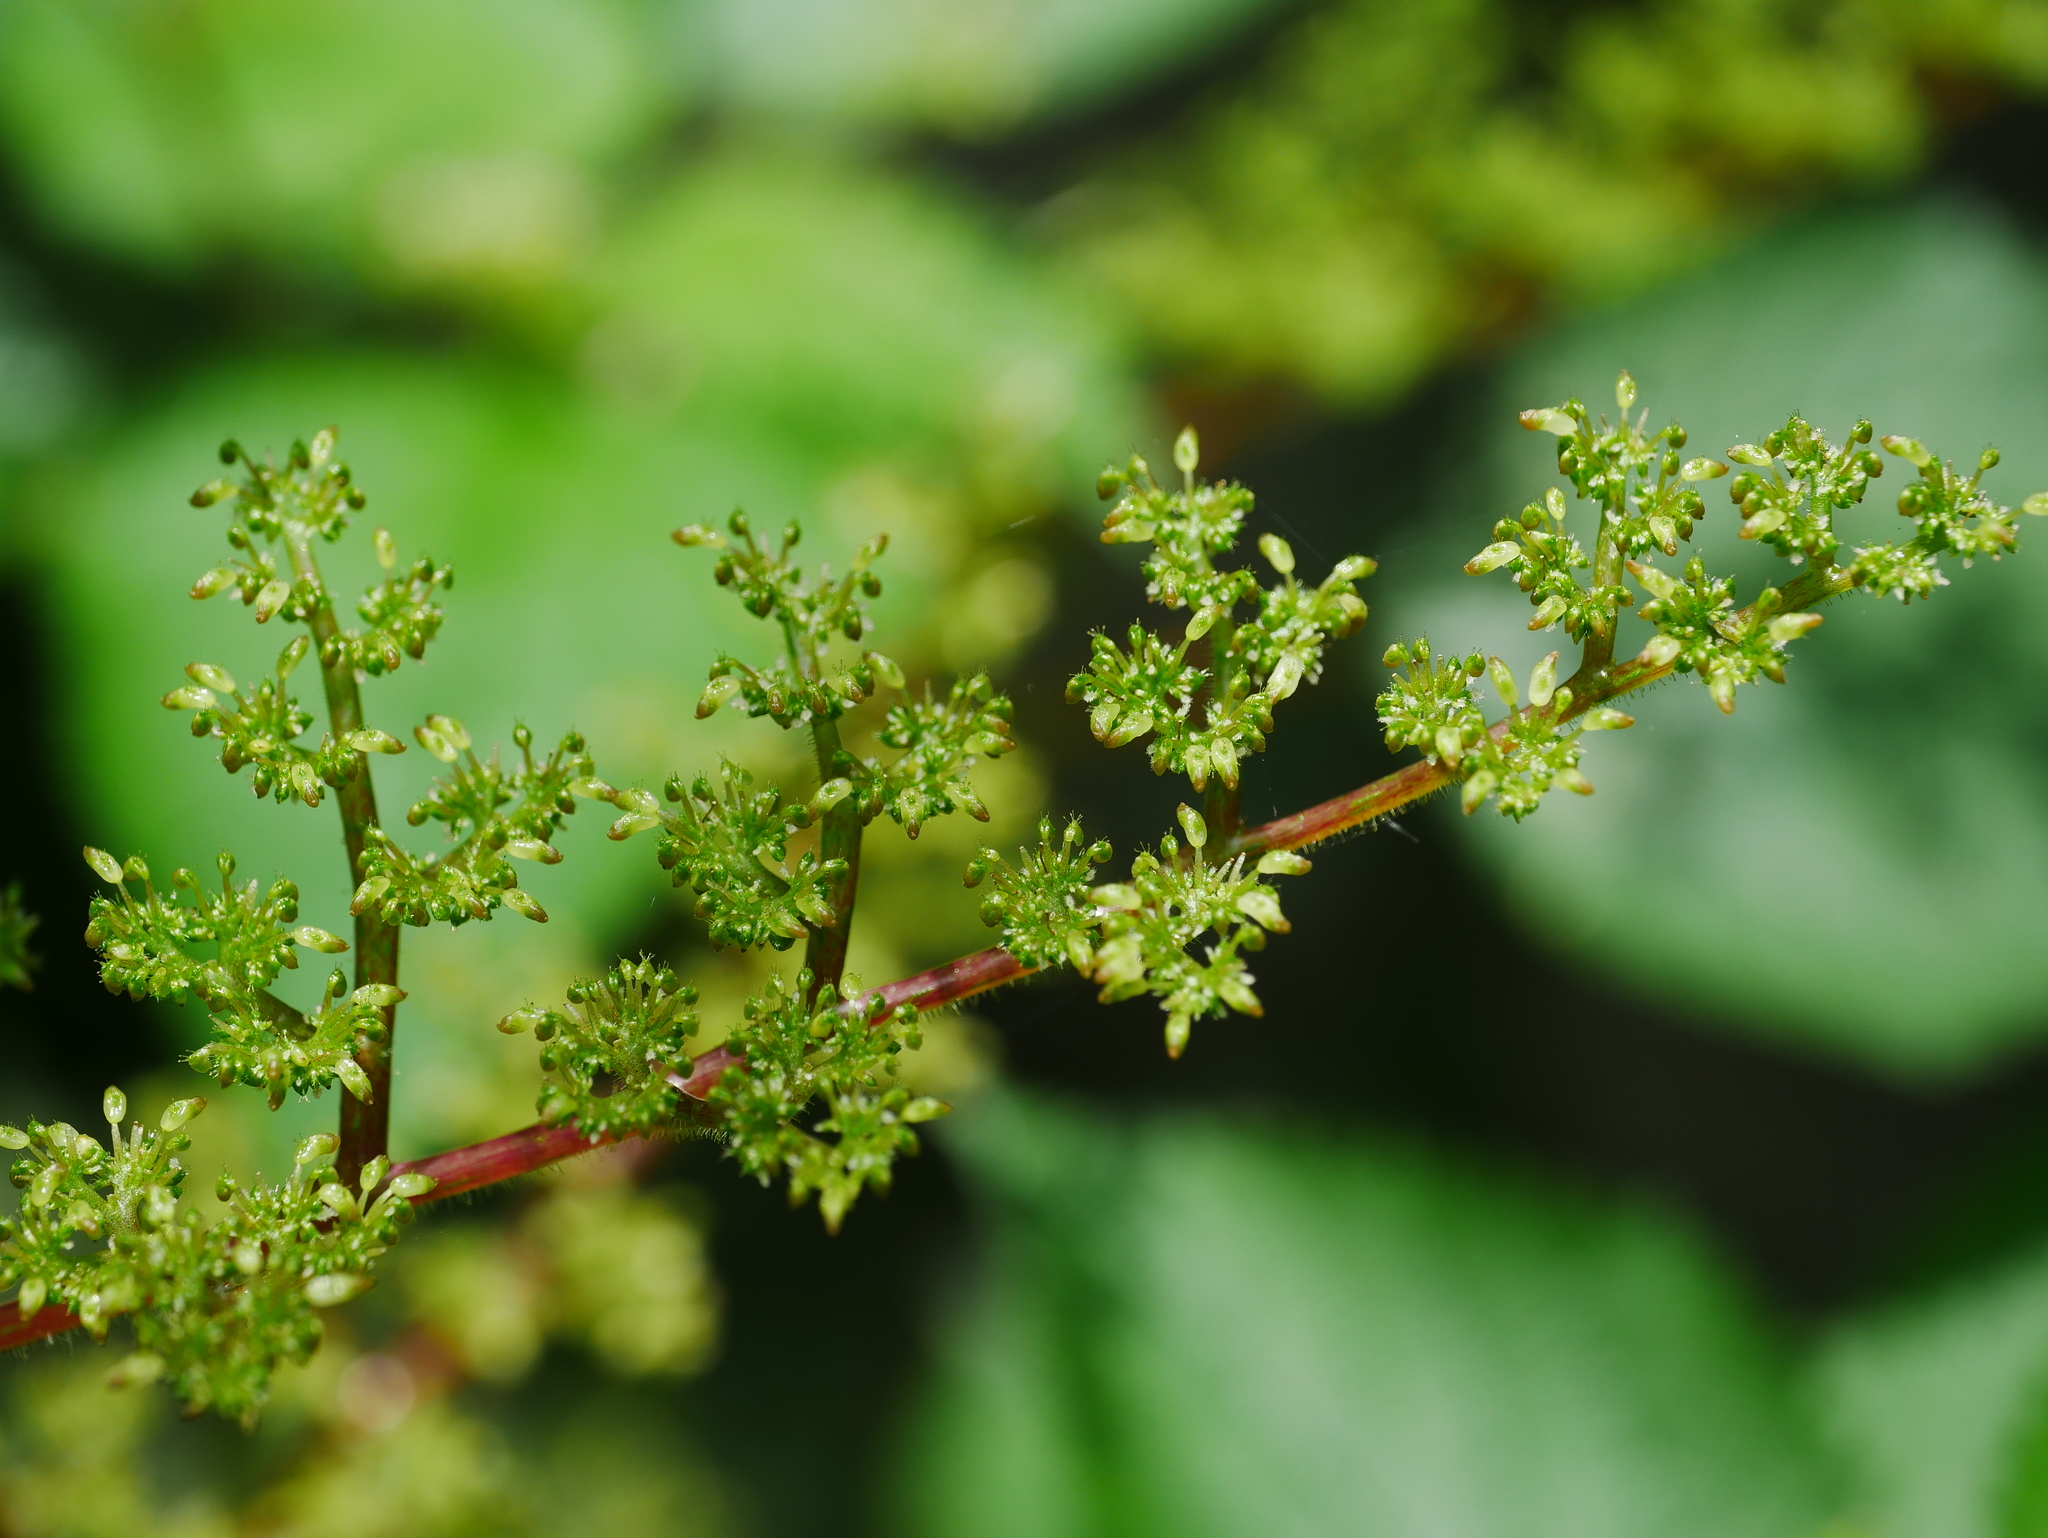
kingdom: Plantae
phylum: Tracheophyta
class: Magnoliopsida
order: Rosales
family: Urticaceae
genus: Laportea
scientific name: Laportea aestuans
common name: West indian woodnettle
